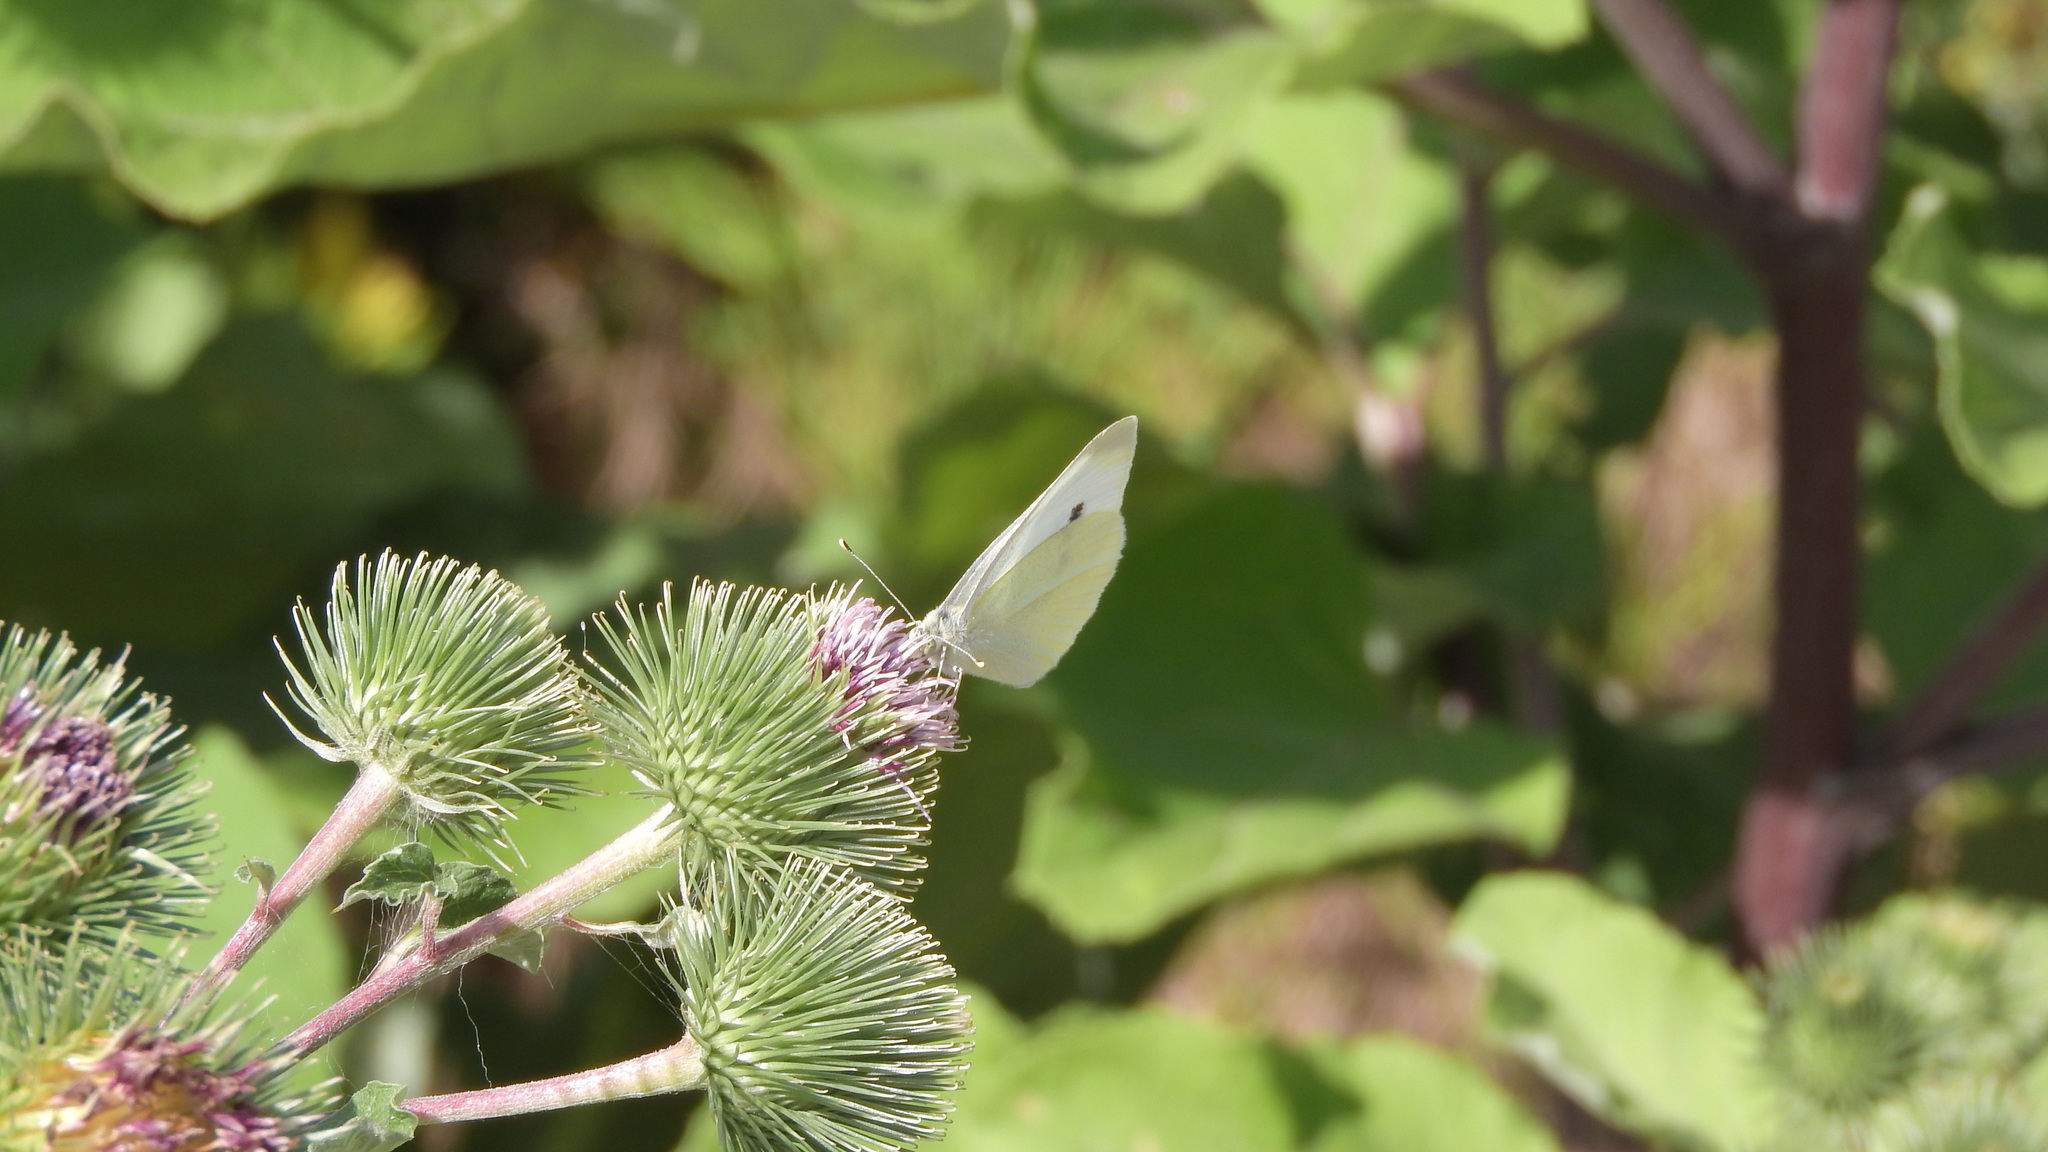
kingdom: Animalia
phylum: Arthropoda
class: Insecta
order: Lepidoptera
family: Pieridae
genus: Pieris
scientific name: Pieris rapae
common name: Small white
